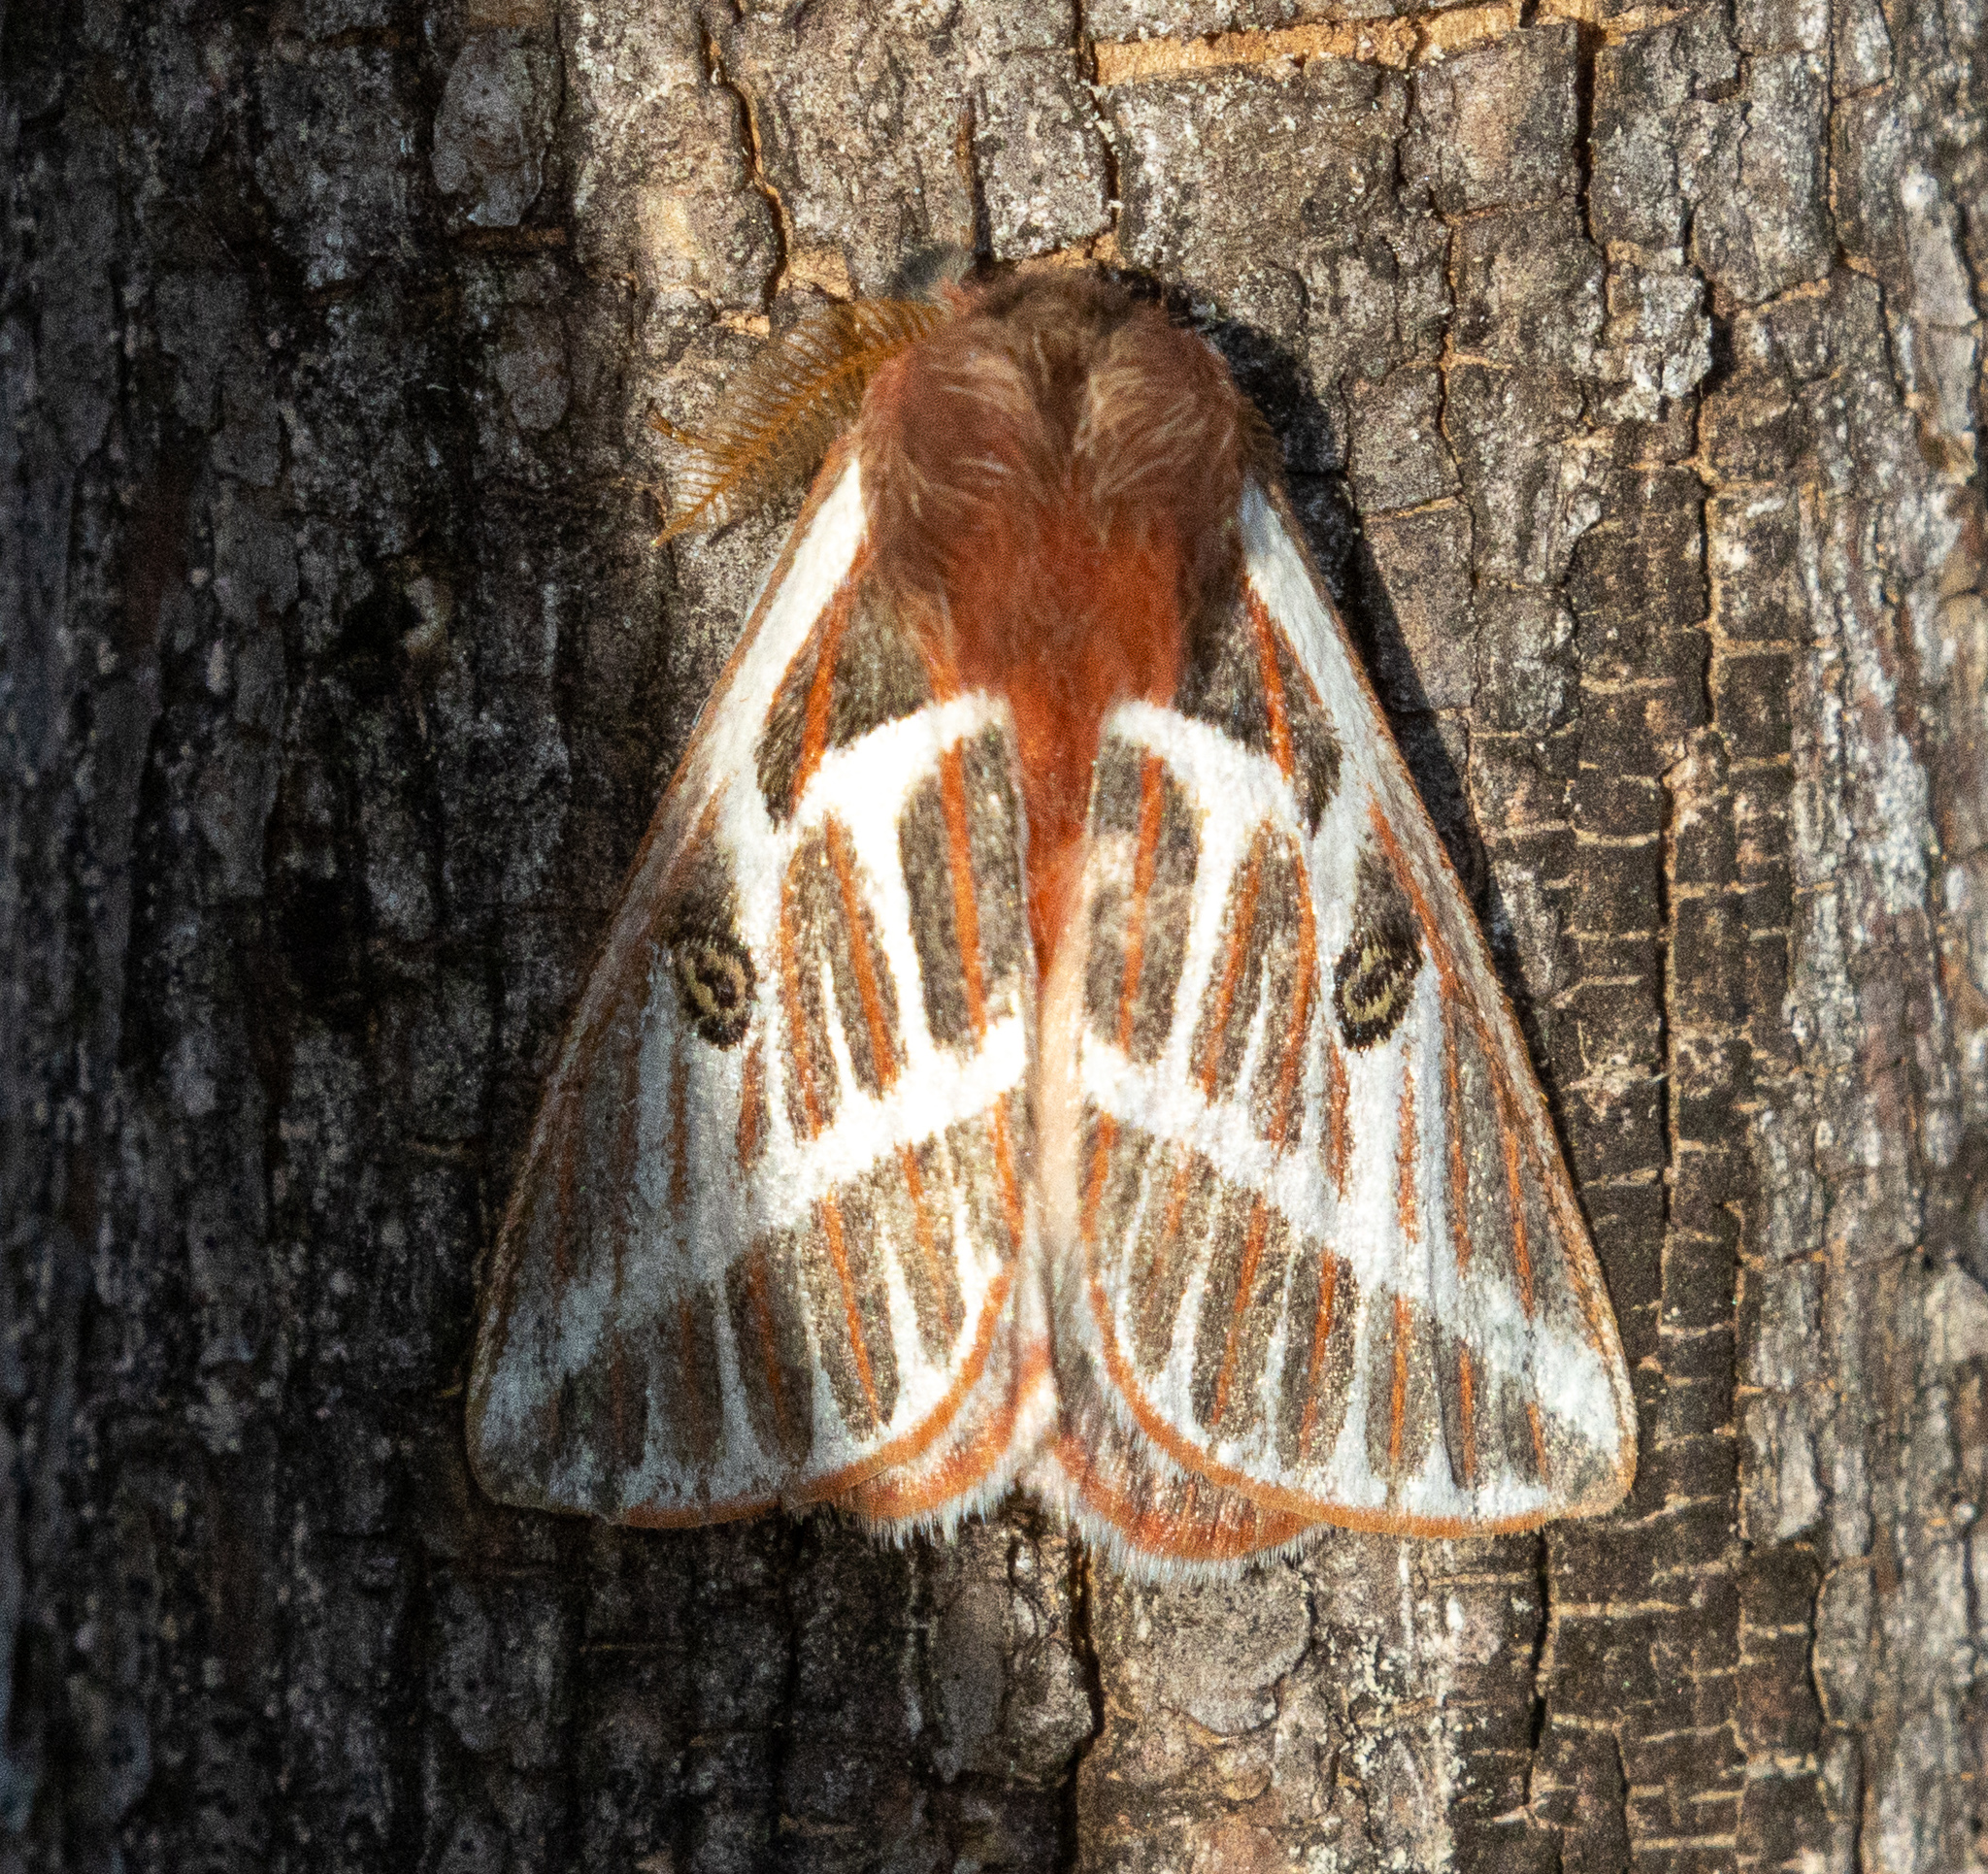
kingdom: Animalia
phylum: Arthropoda
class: Insecta
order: Lepidoptera
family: Saturniidae
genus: Eubergia
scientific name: Eubergia argyrea
